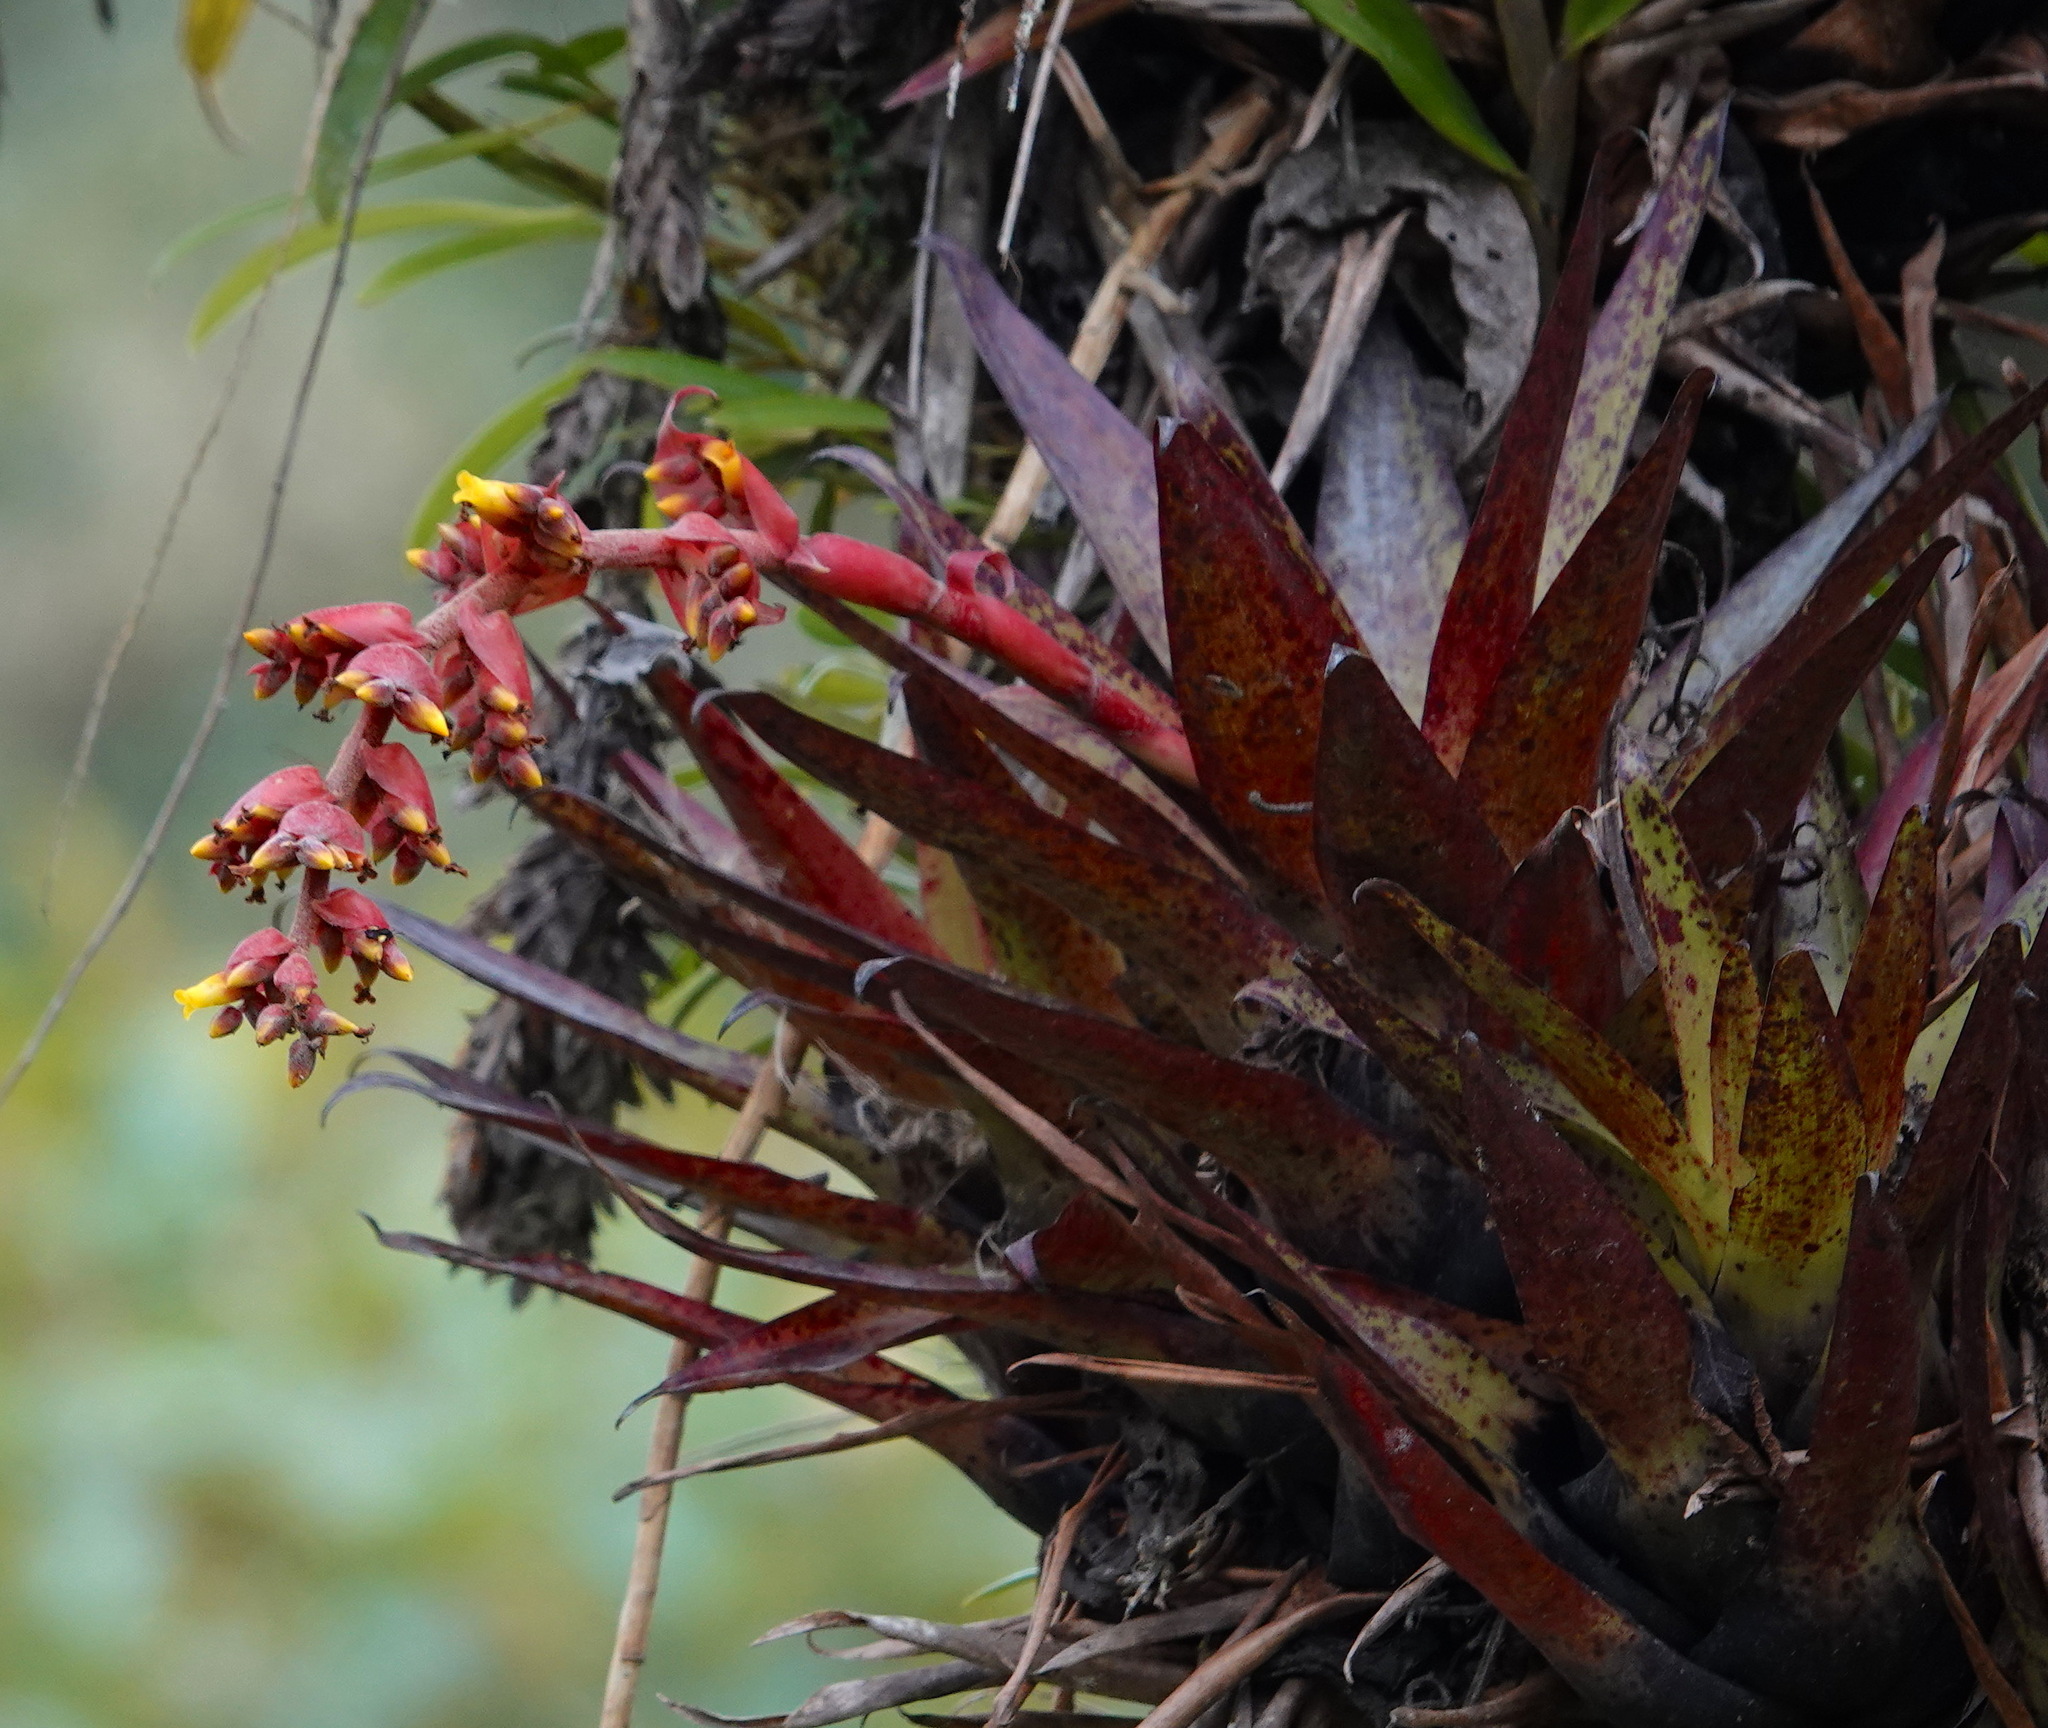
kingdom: Plantae
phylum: Tracheophyta
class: Liliopsida
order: Poales
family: Bromeliaceae
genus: Racinaea
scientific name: Racinaea tetrantha
